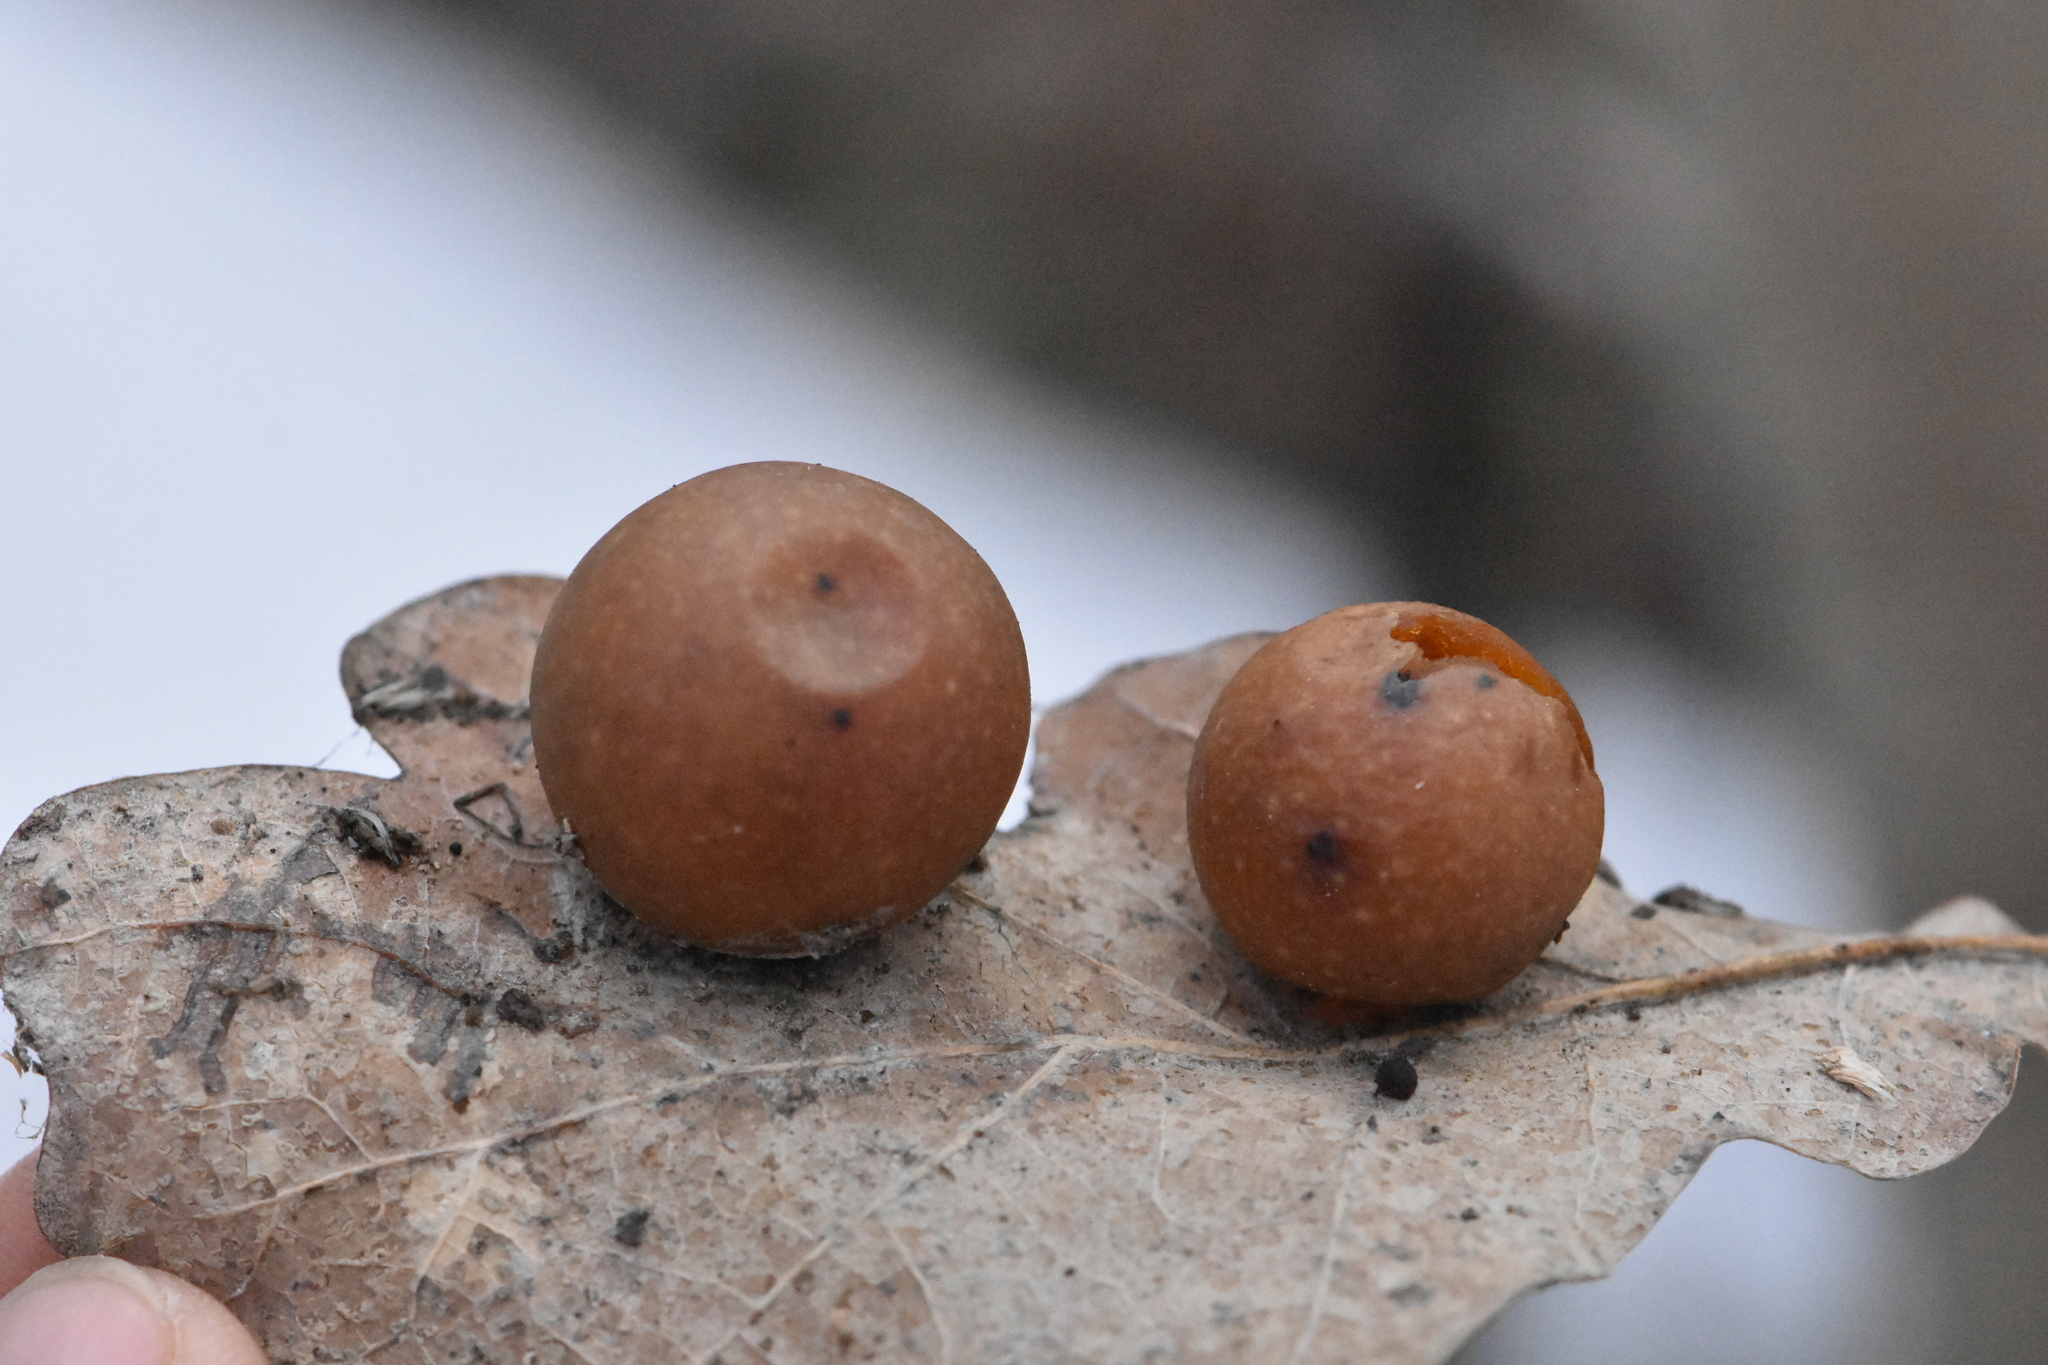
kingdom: Animalia
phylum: Arthropoda
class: Insecta
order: Hymenoptera
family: Cynipidae
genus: Cynips
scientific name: Cynips quercusfolii
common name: Cherry gall
